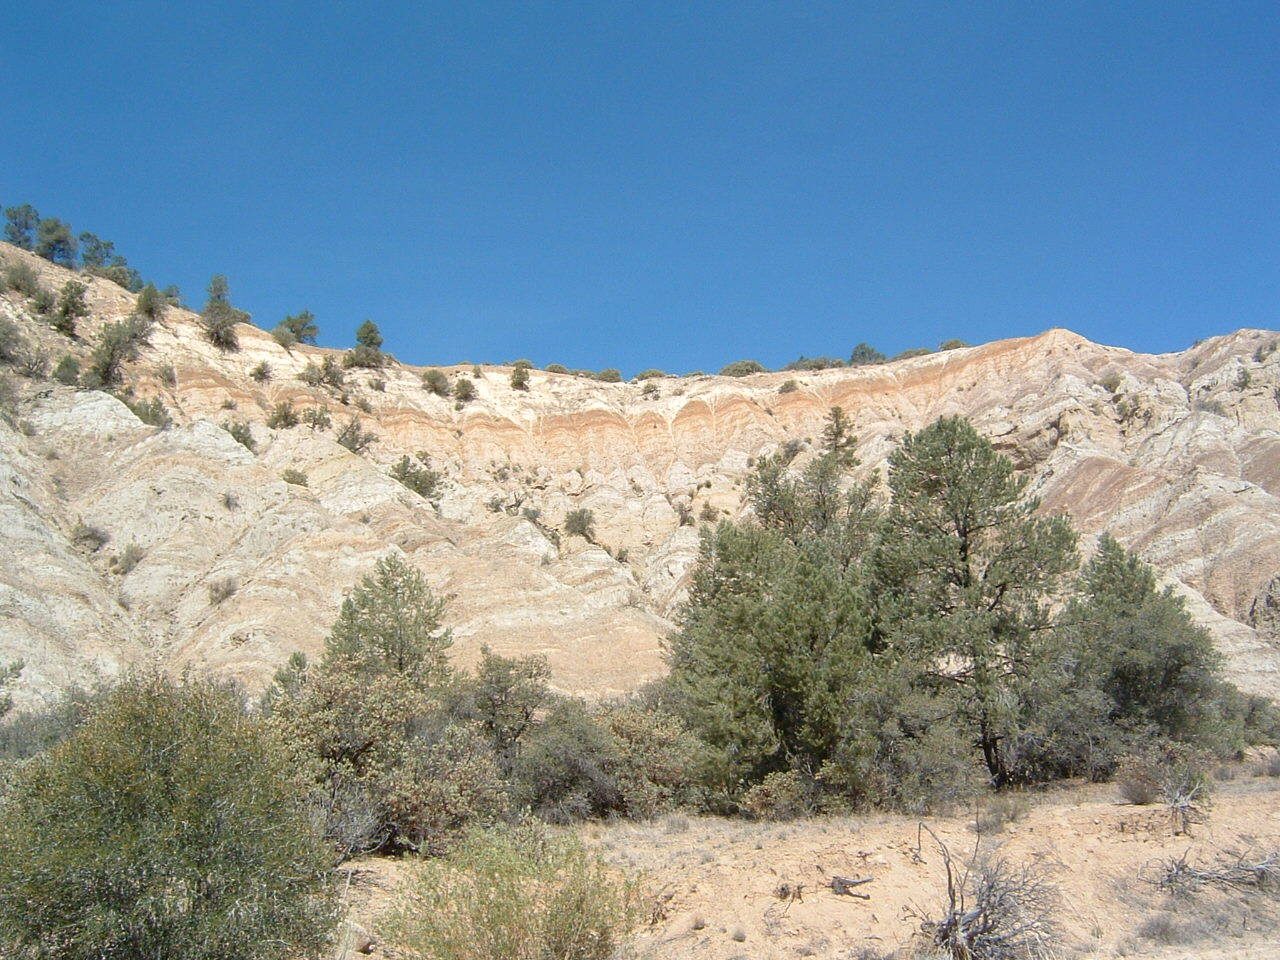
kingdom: Plantae
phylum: Tracheophyta
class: Pinopsida
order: Pinales
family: Pinaceae
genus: Pinus
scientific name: Pinus monophylla
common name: One-leaved nut pine
